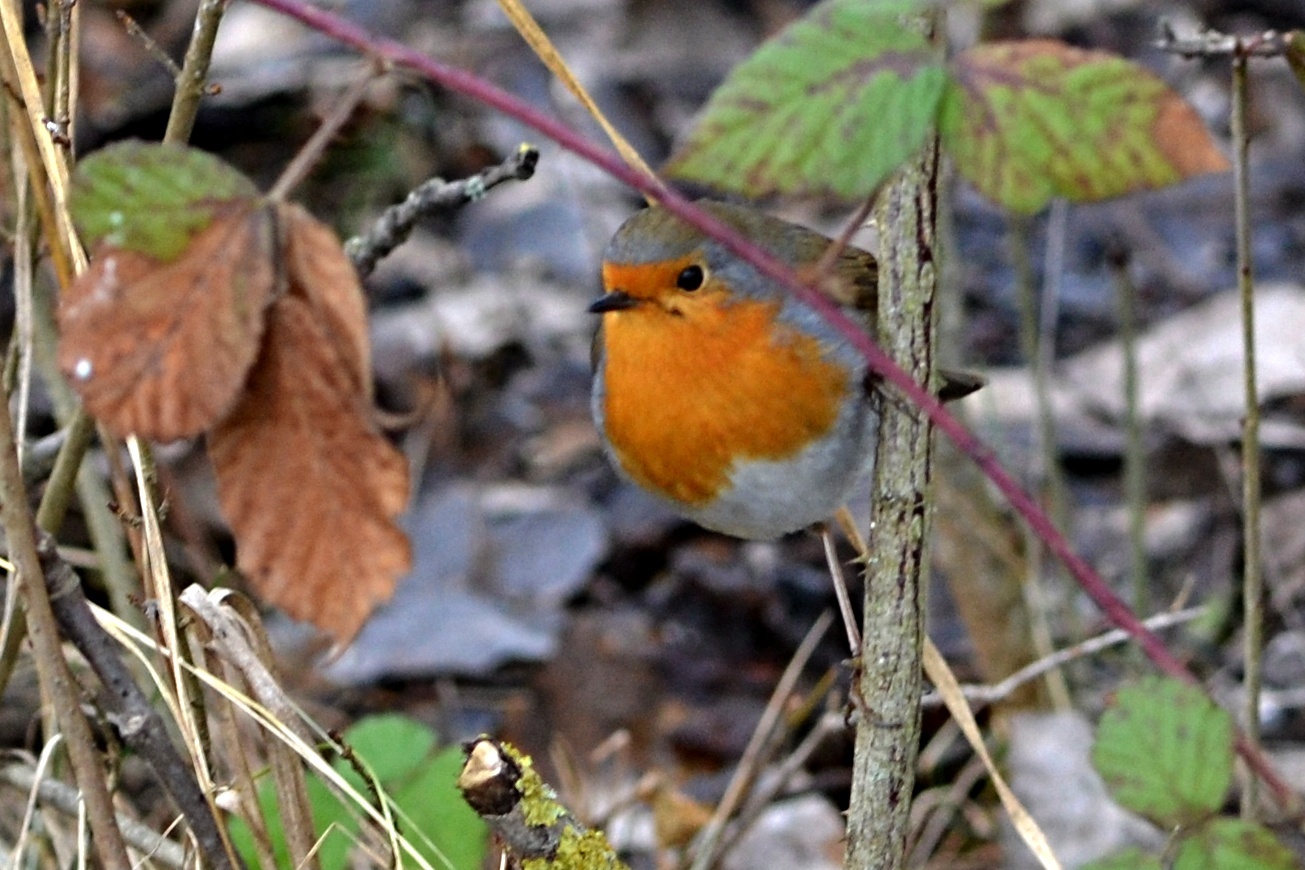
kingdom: Animalia
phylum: Chordata
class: Aves
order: Passeriformes
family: Muscicapidae
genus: Erithacus
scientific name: Erithacus rubecula
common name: European robin
